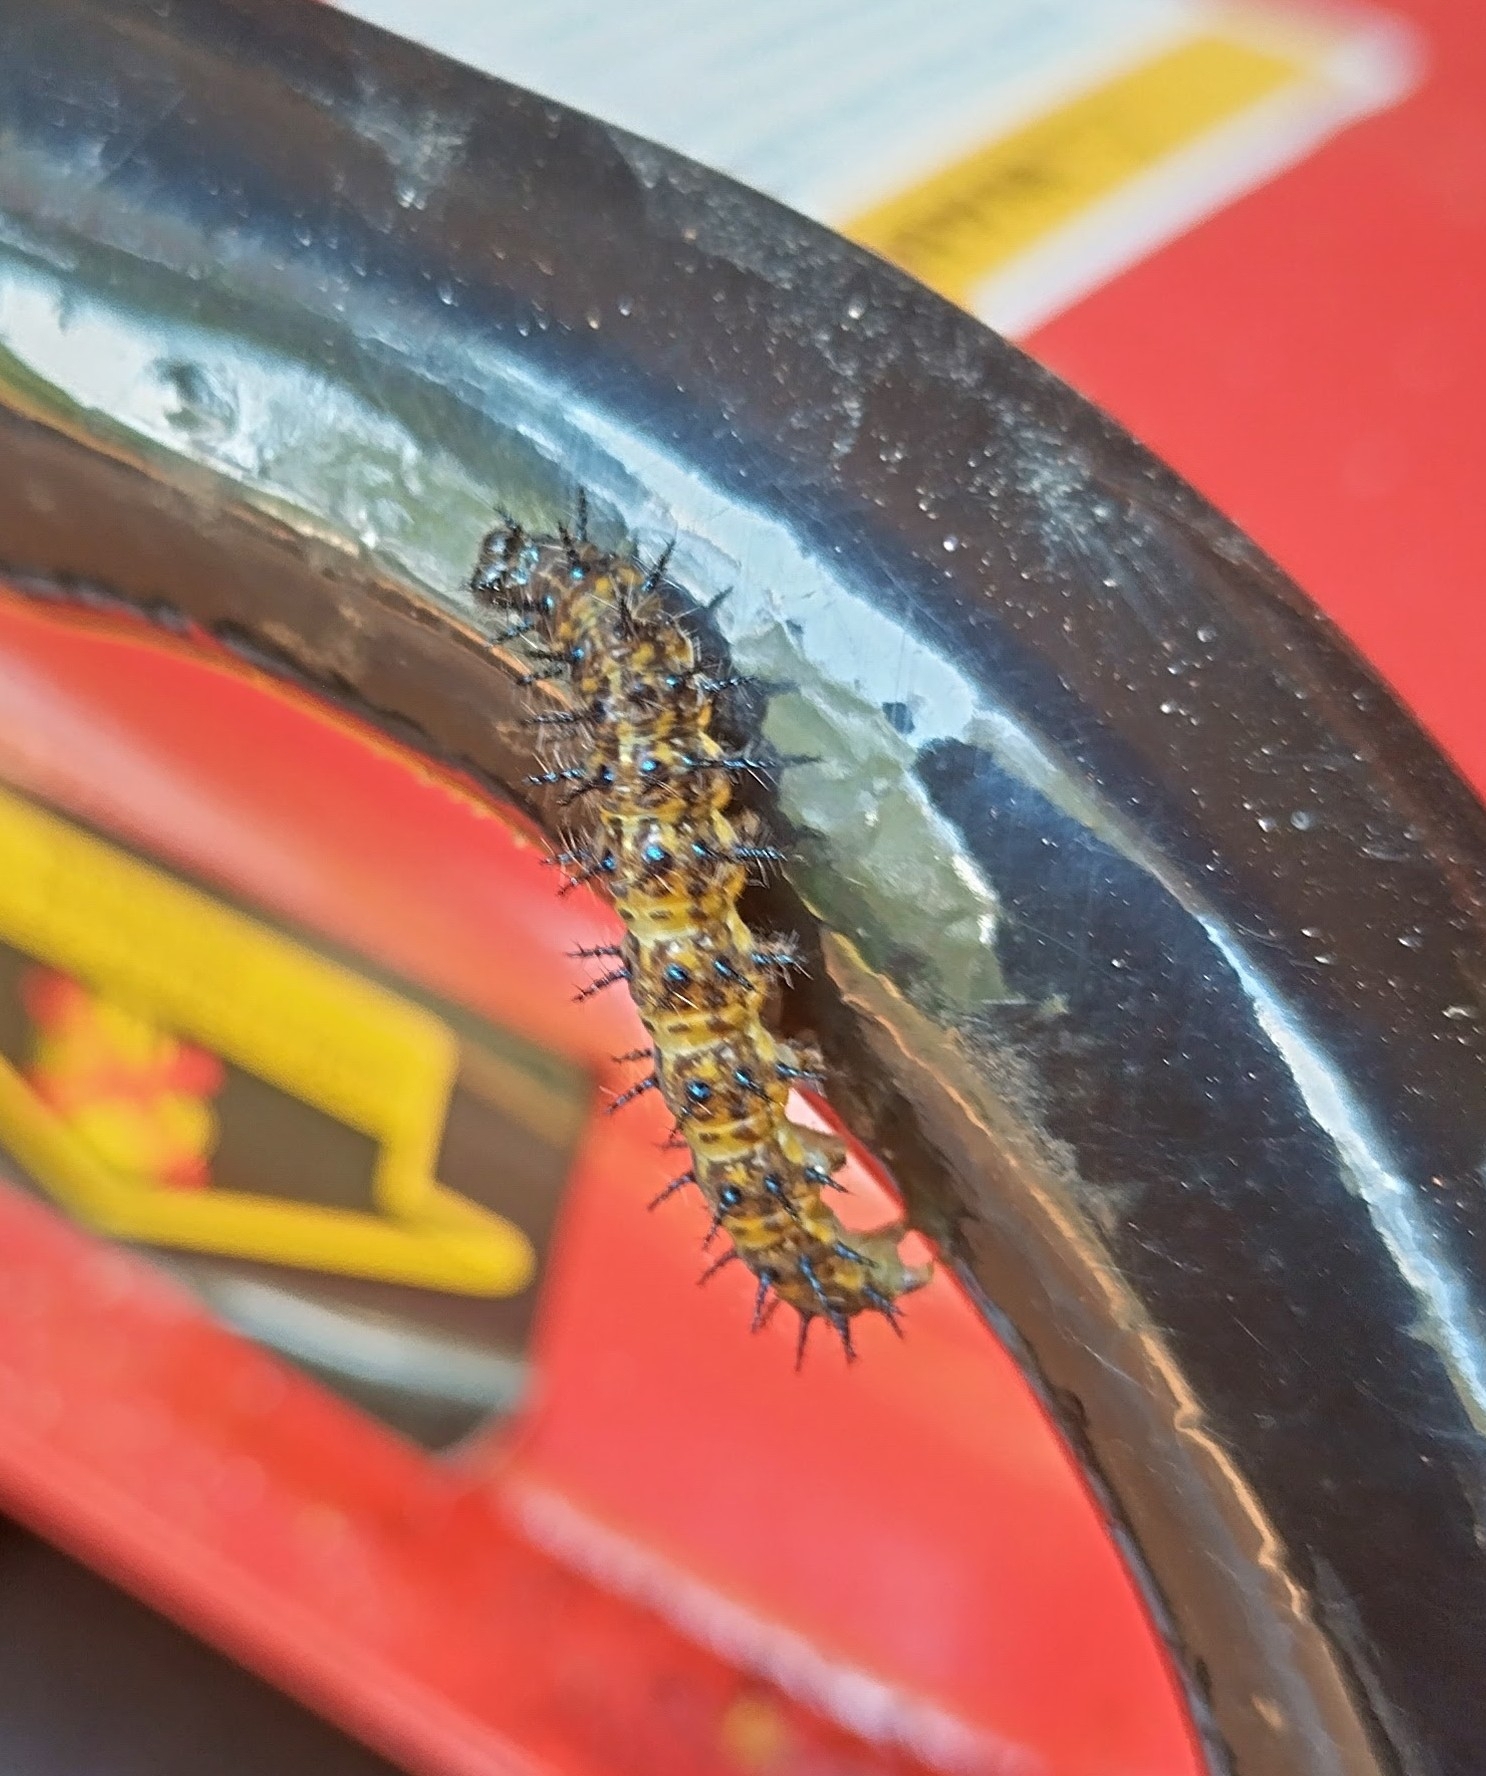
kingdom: Animalia
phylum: Arthropoda
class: Insecta
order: Lepidoptera
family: Nymphalidae
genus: Acraea
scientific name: Acraea horta
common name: Garden acraea
